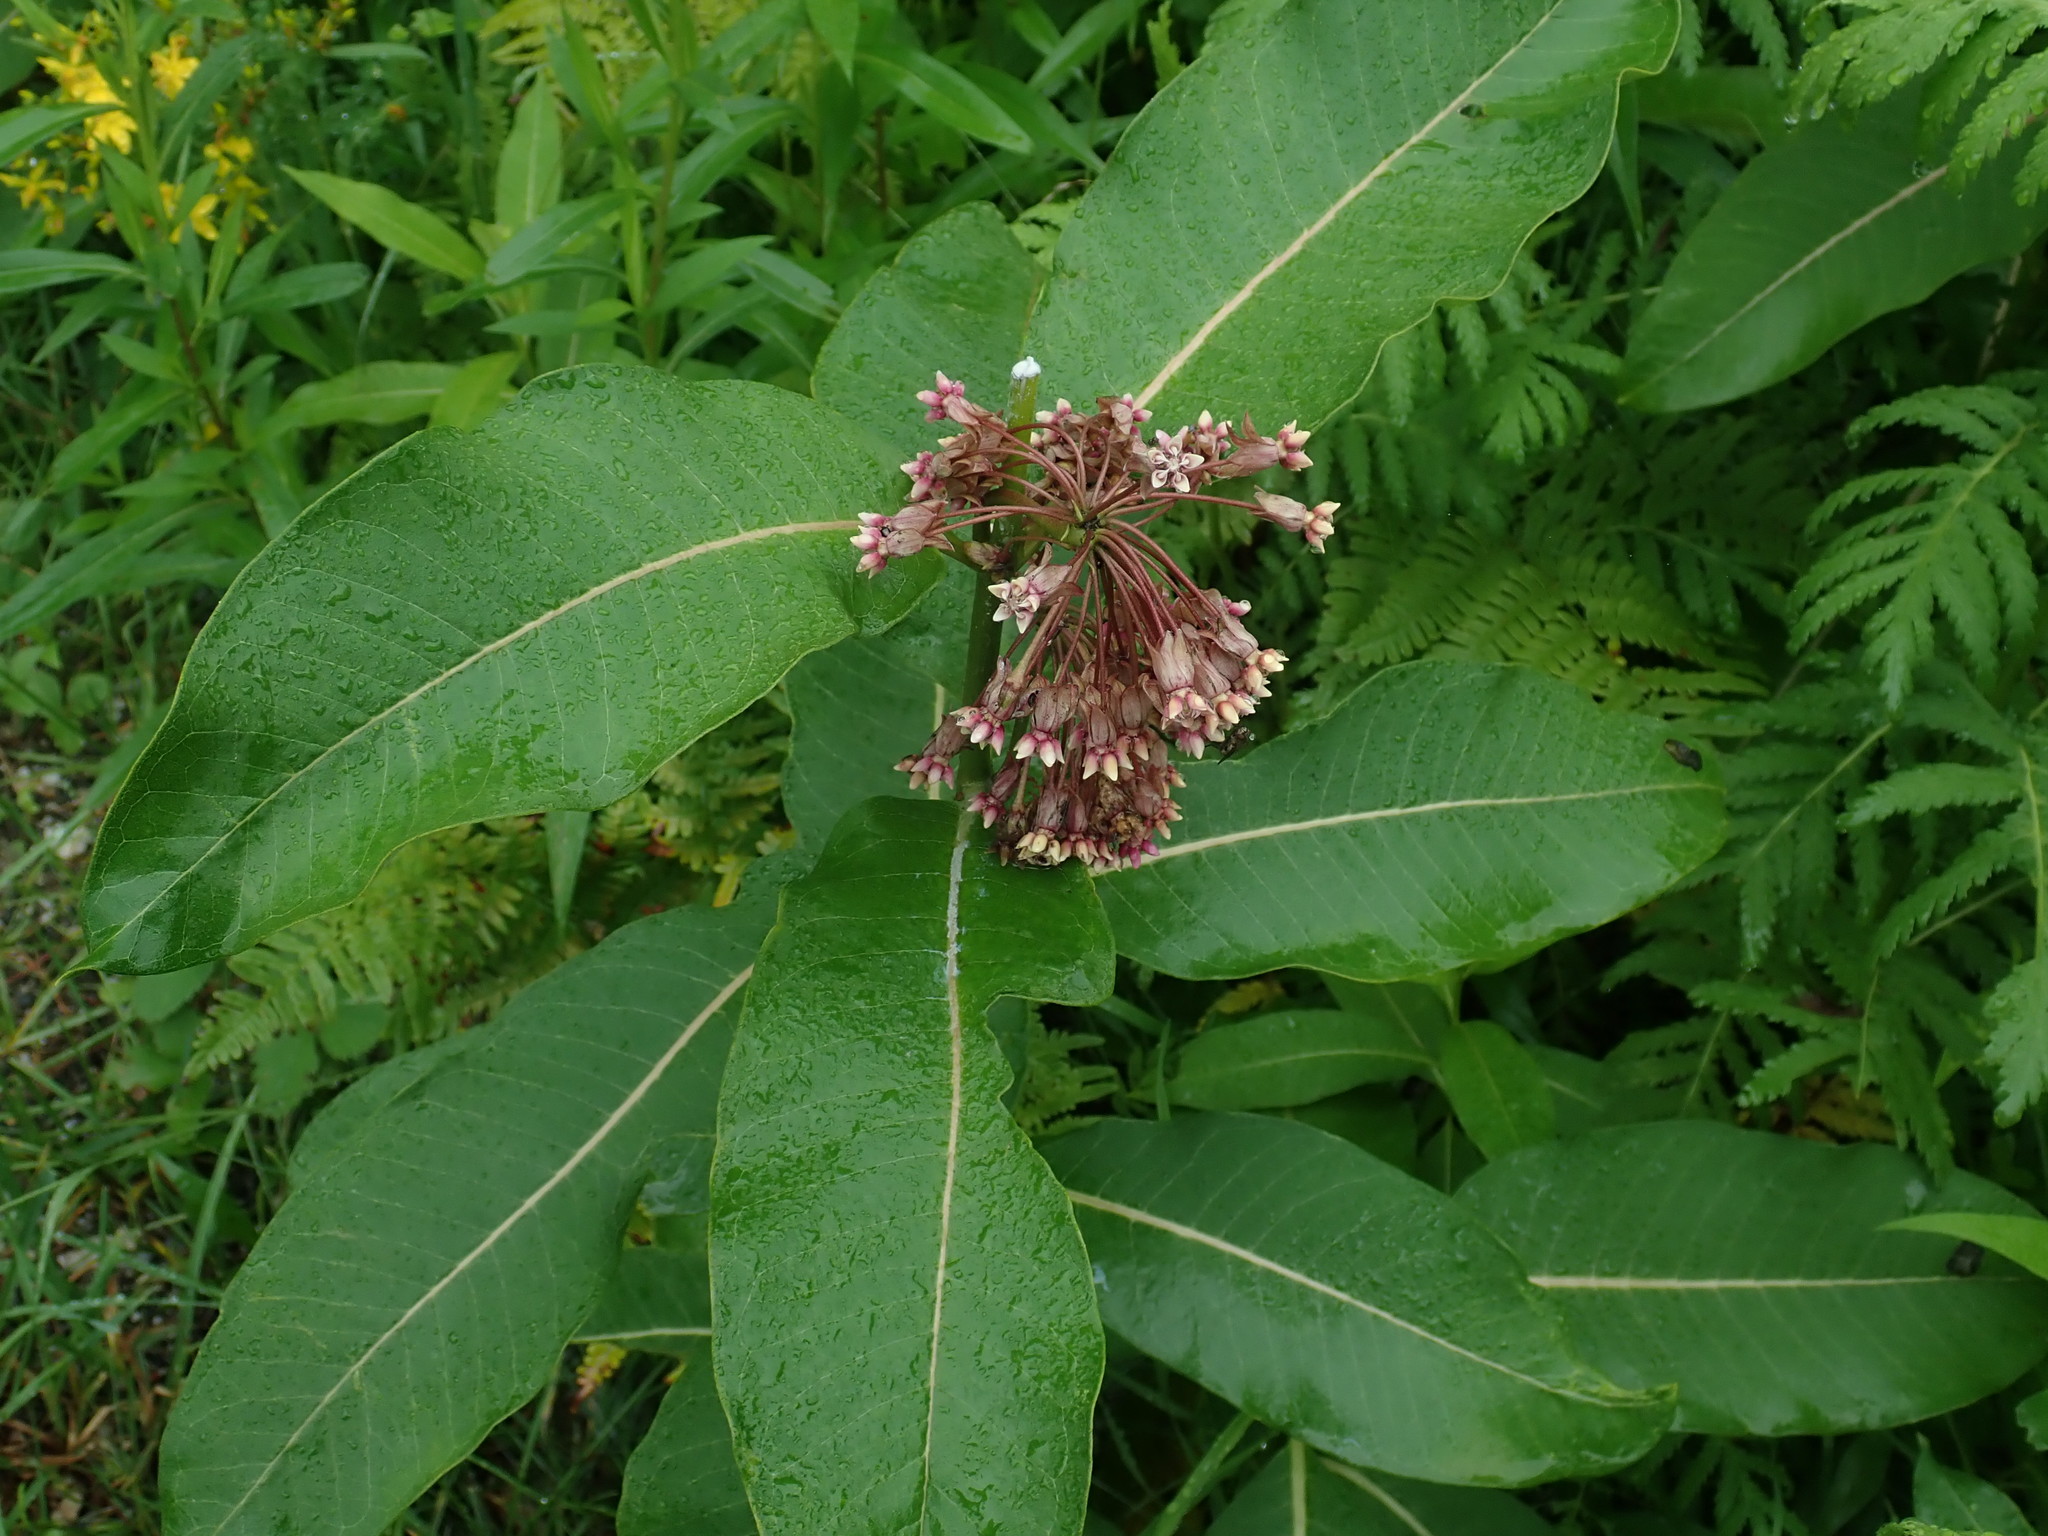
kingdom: Plantae
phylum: Tracheophyta
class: Magnoliopsida
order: Gentianales
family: Apocynaceae
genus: Asclepias
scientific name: Asclepias syriaca
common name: Common milkweed
